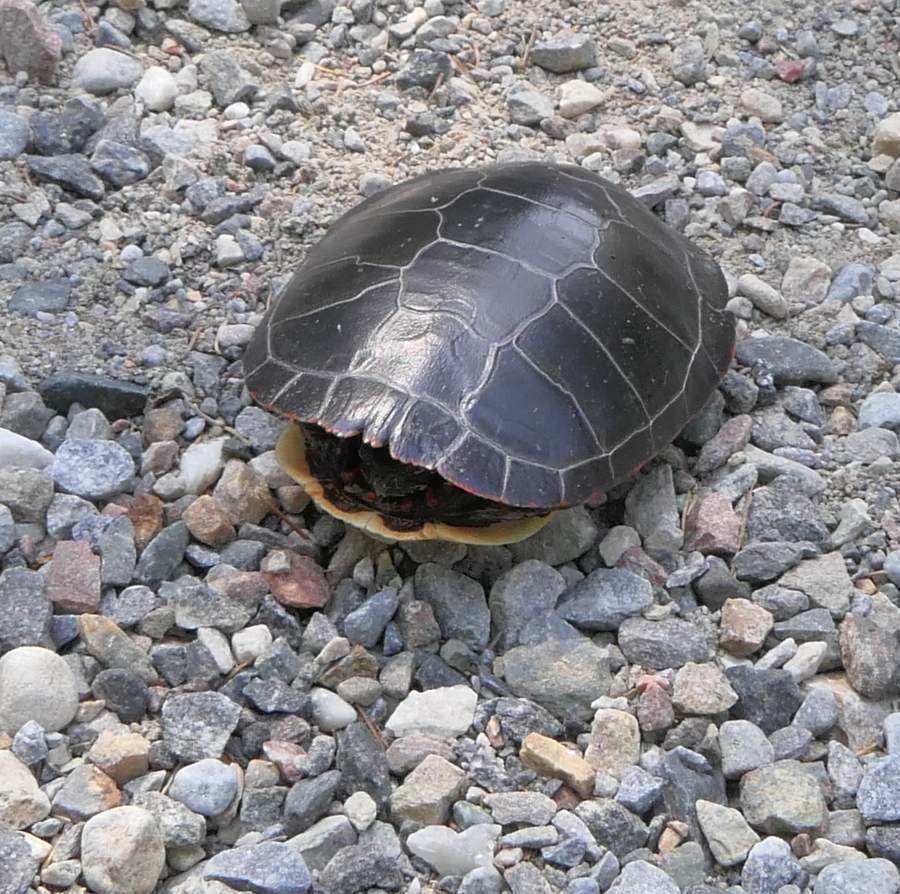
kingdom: Animalia
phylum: Chordata
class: Testudines
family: Emydidae
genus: Chrysemys
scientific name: Chrysemys picta
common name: Painted turtle
